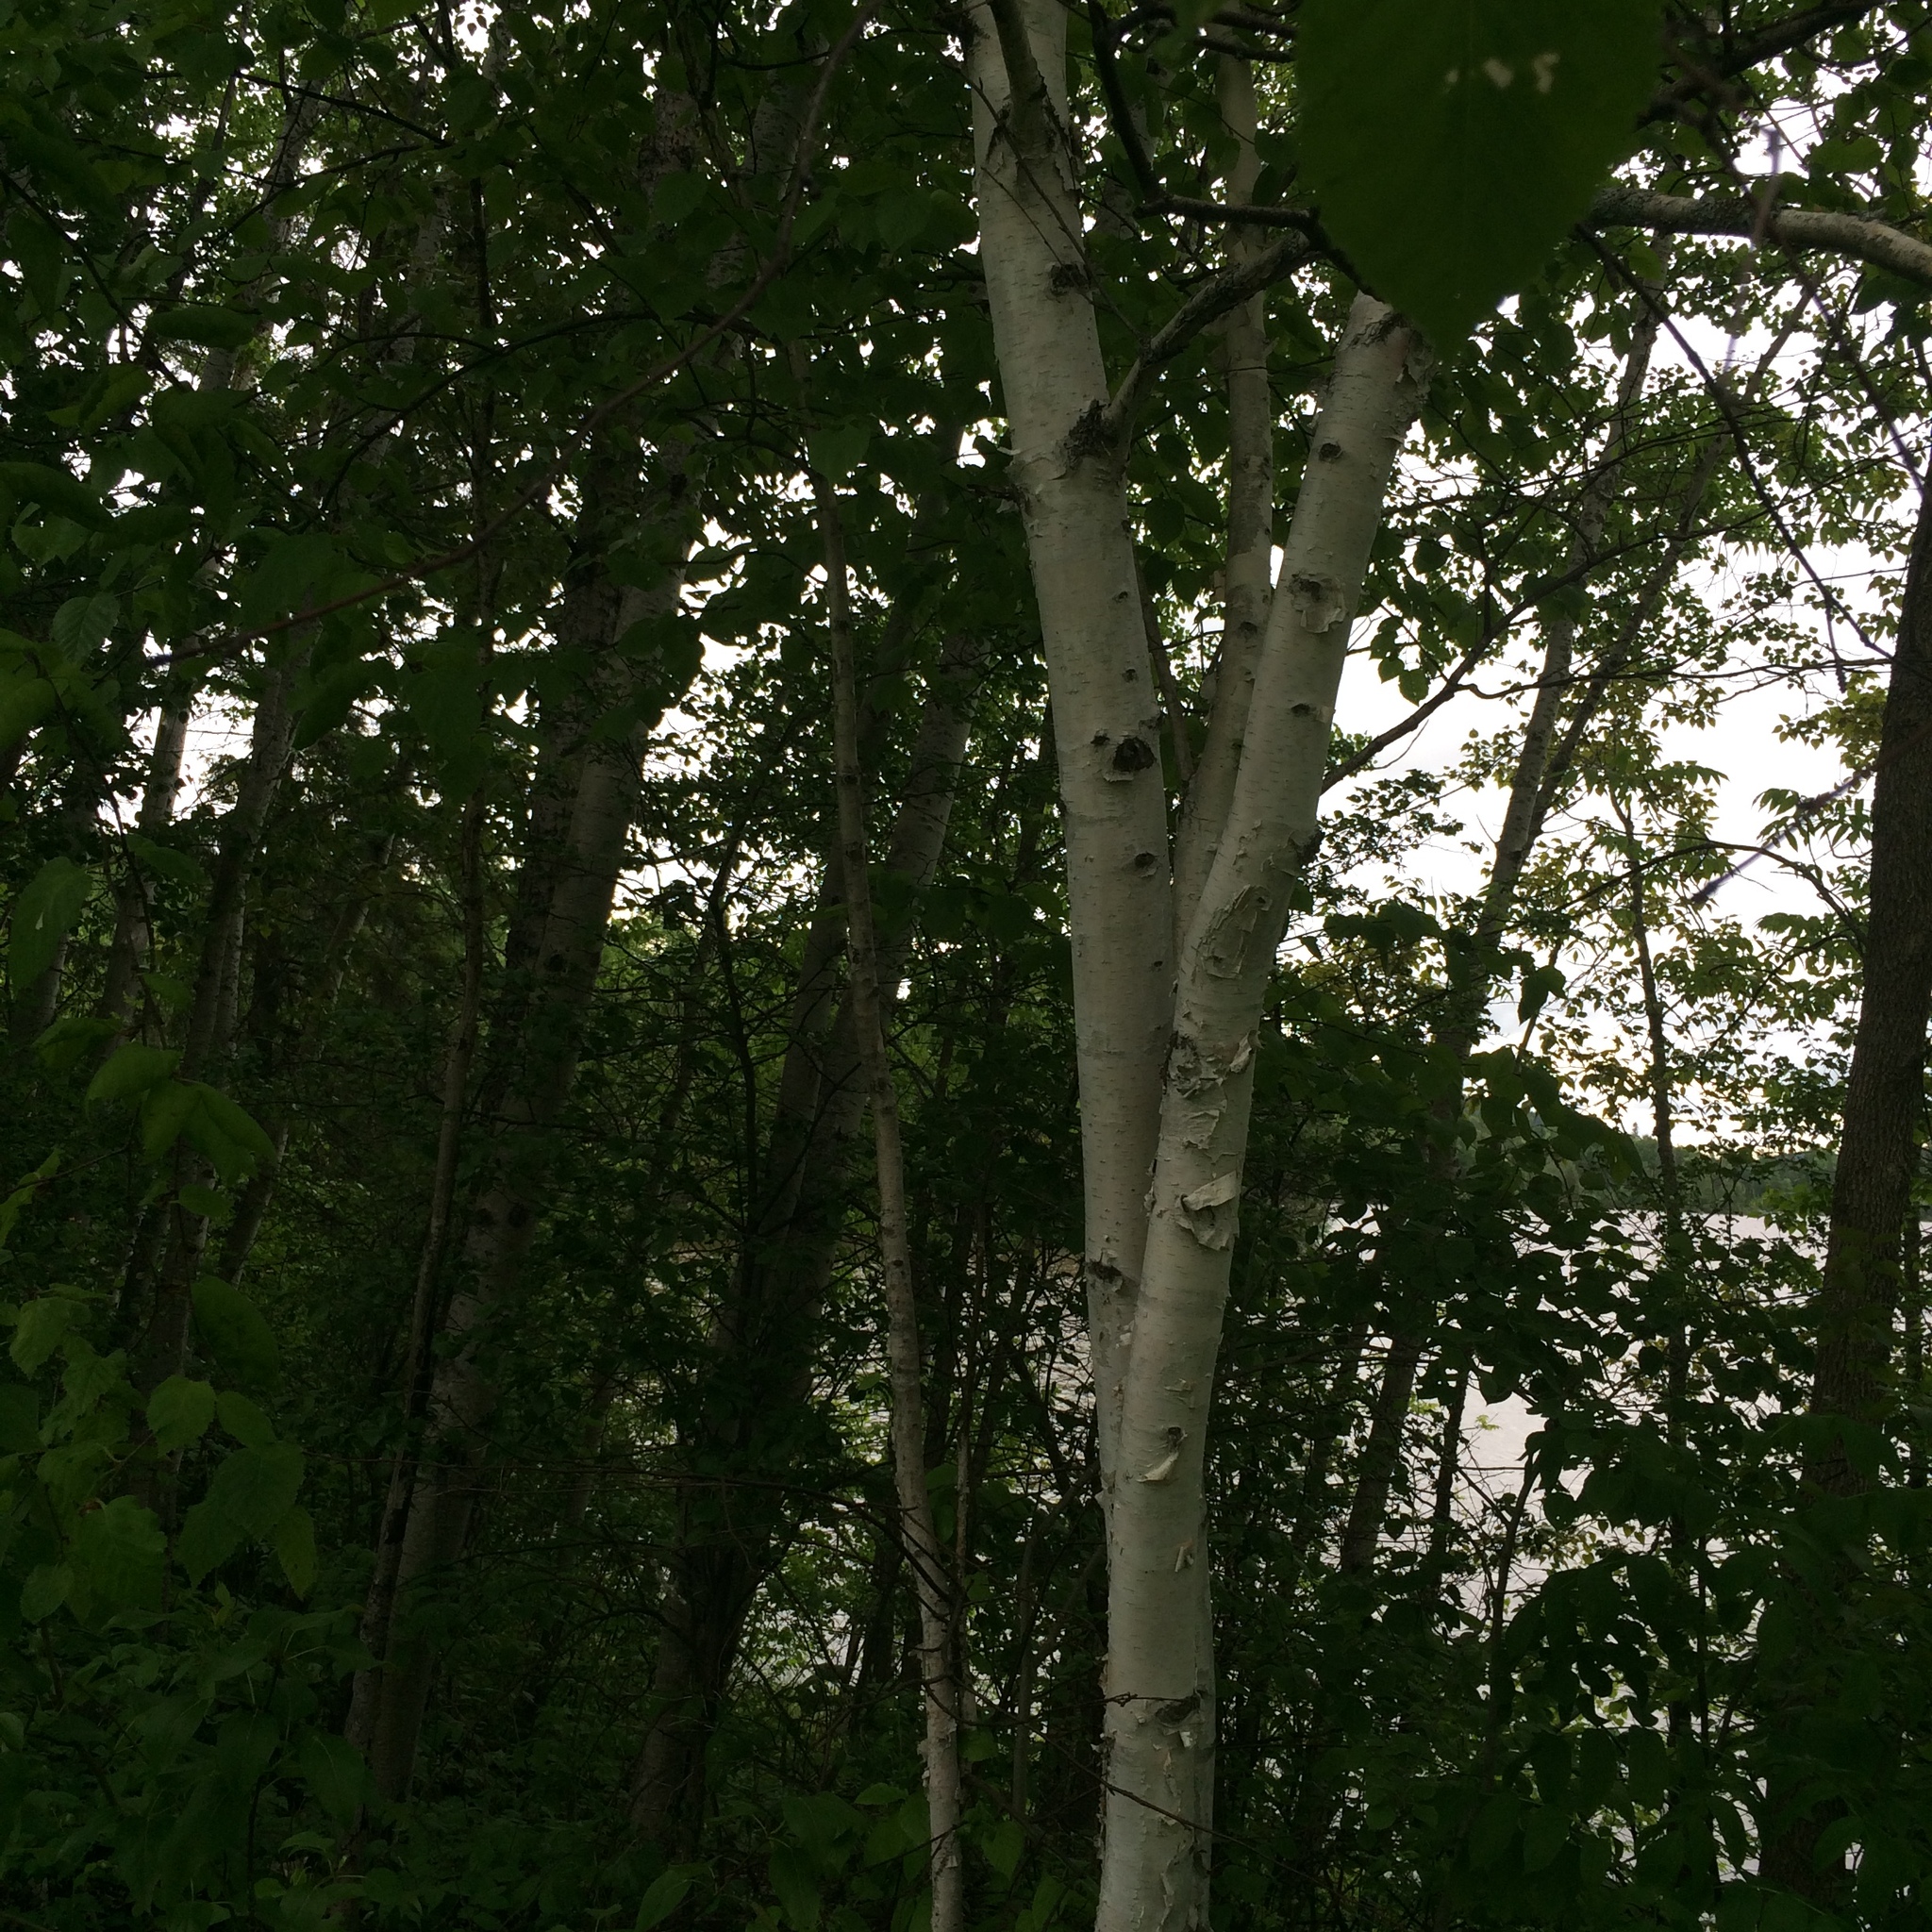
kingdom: Plantae
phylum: Tracheophyta
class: Magnoliopsida
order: Fagales
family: Betulaceae
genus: Betula
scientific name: Betula papyrifera
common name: Paper birch
